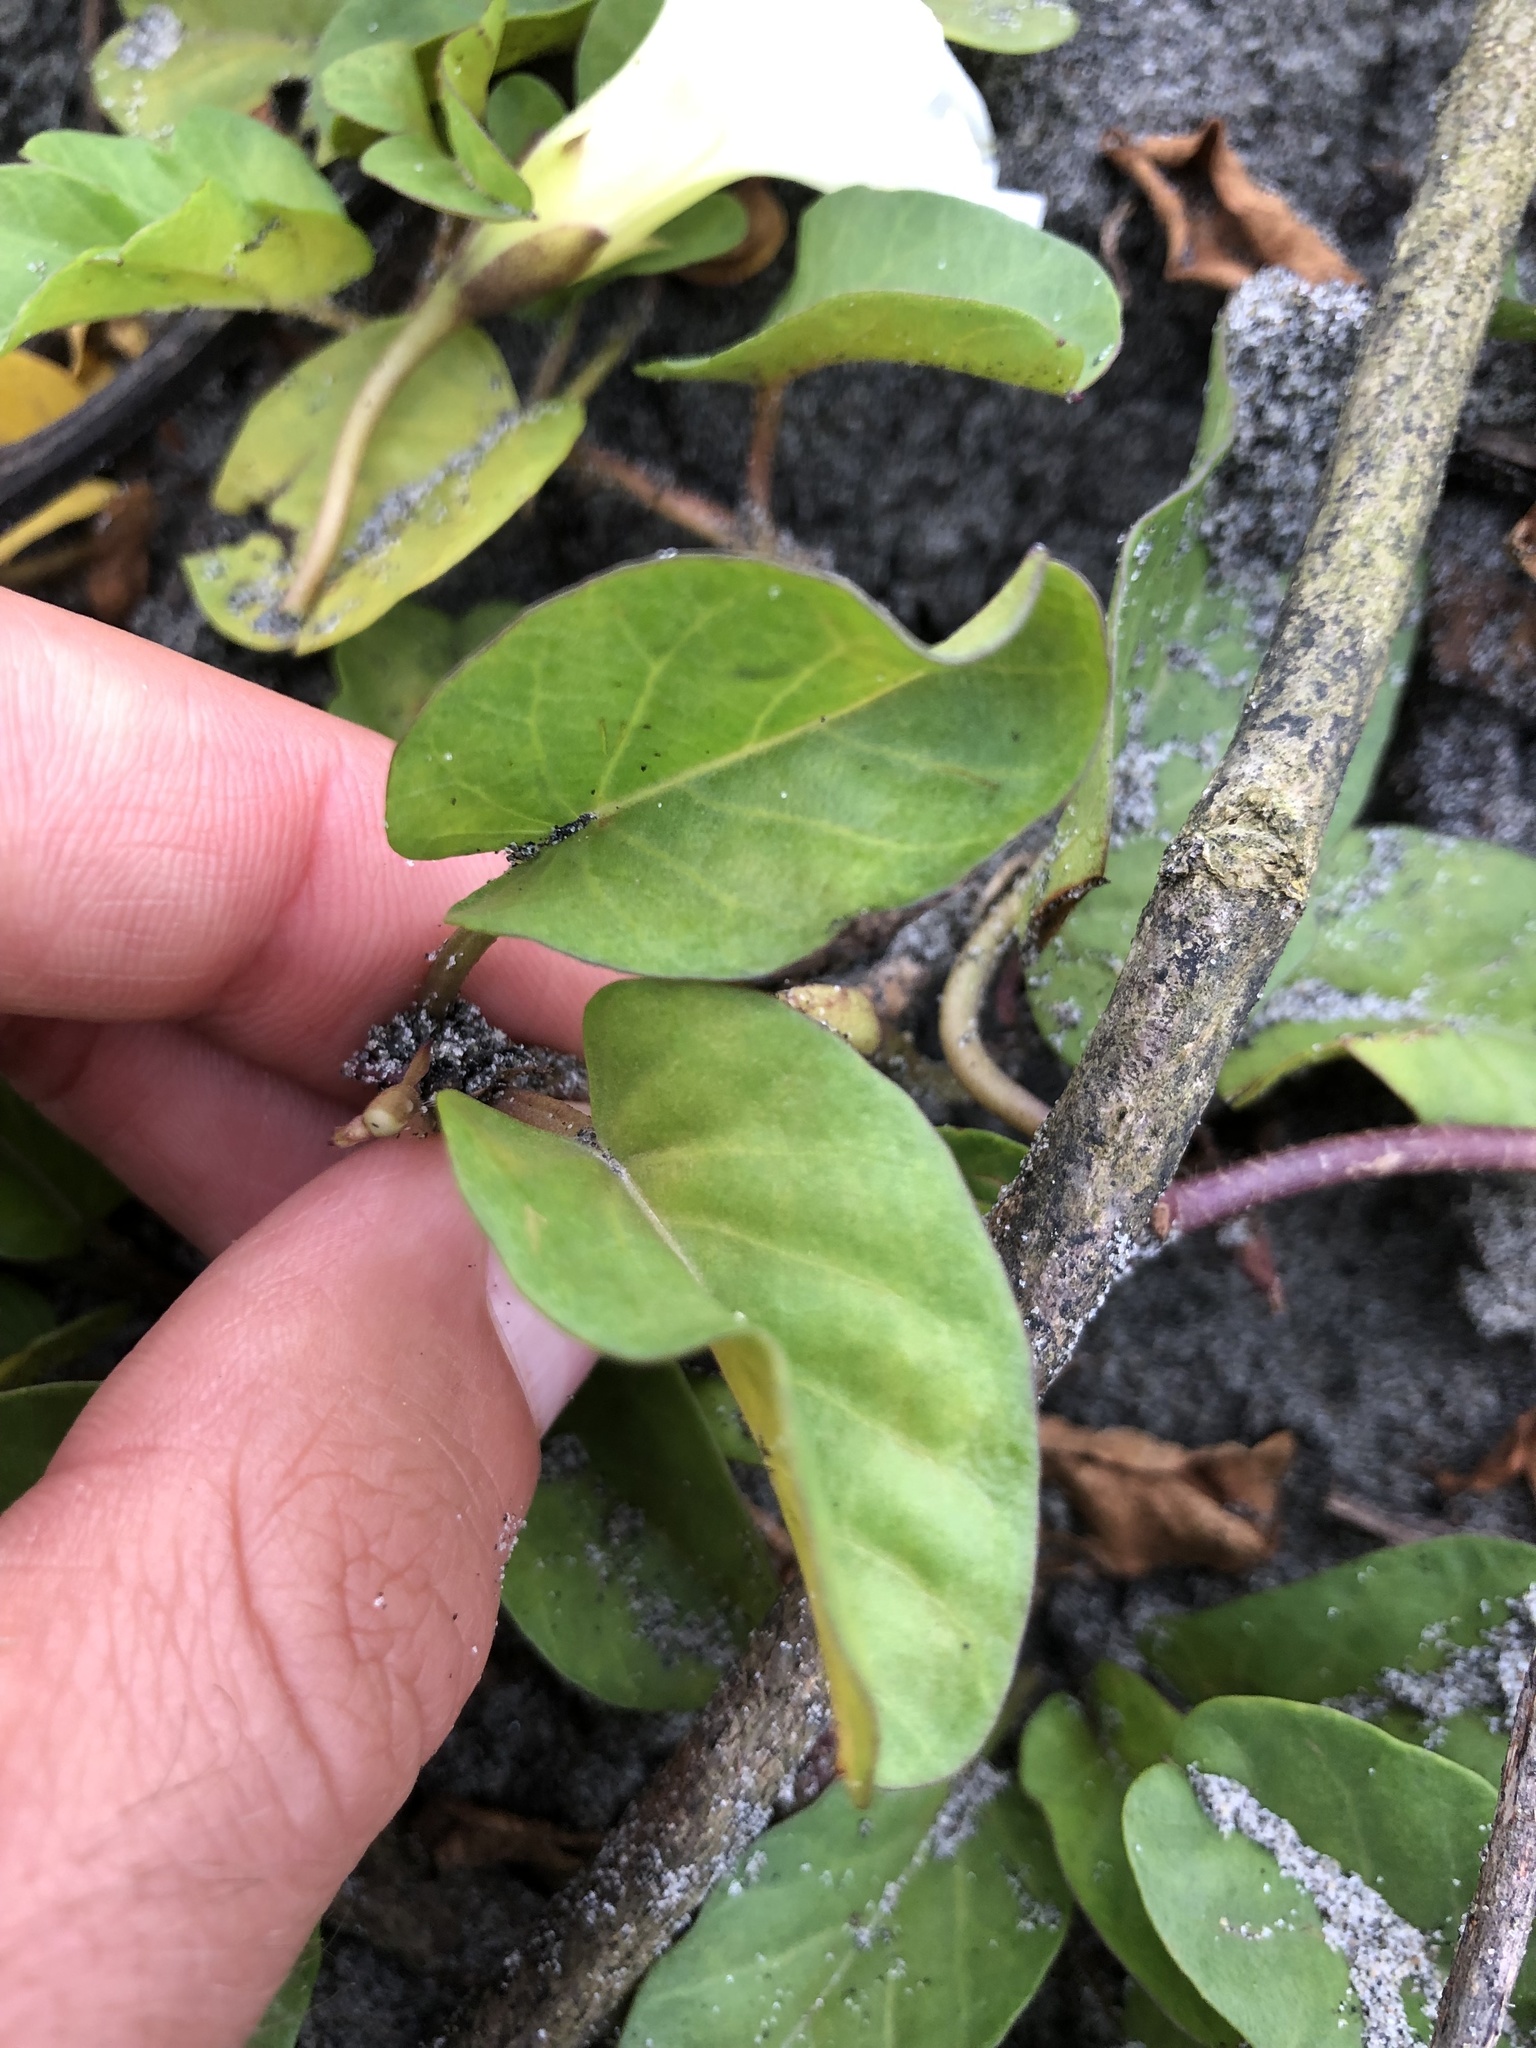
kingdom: Plantae
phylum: Tracheophyta
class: Magnoliopsida
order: Solanales
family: Convolvulaceae
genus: Ipomoea
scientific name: Ipomoea imperati
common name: Fiddle-leaf morning-glory
